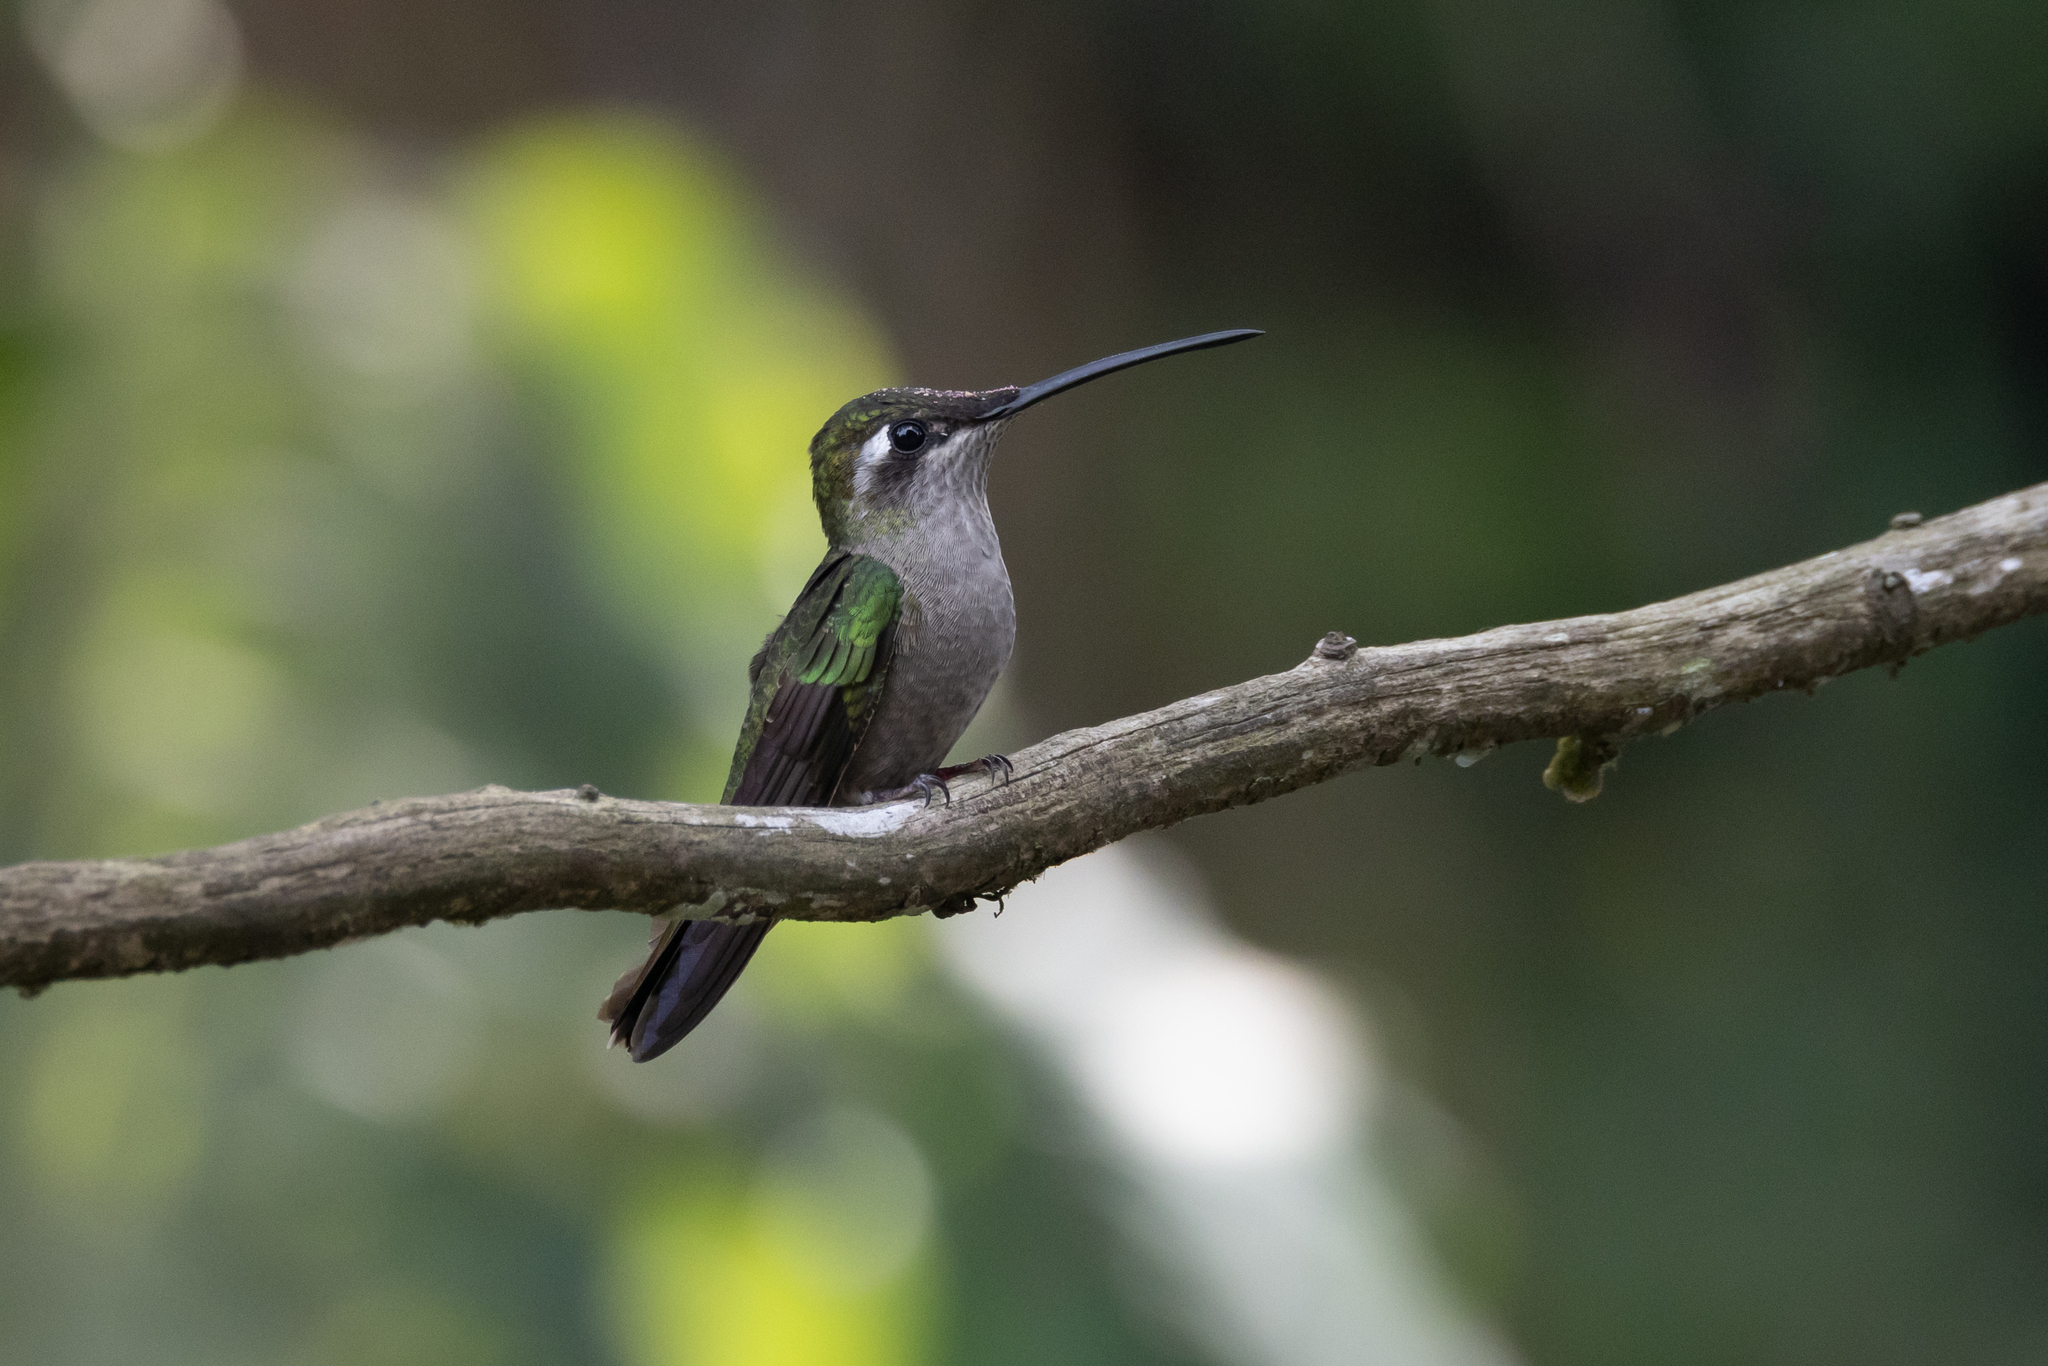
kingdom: Animalia
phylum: Chordata
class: Aves
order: Apodiformes
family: Trochilidae
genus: Eugenes
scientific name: Eugenes fulgens
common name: Magnificent hummingbird
